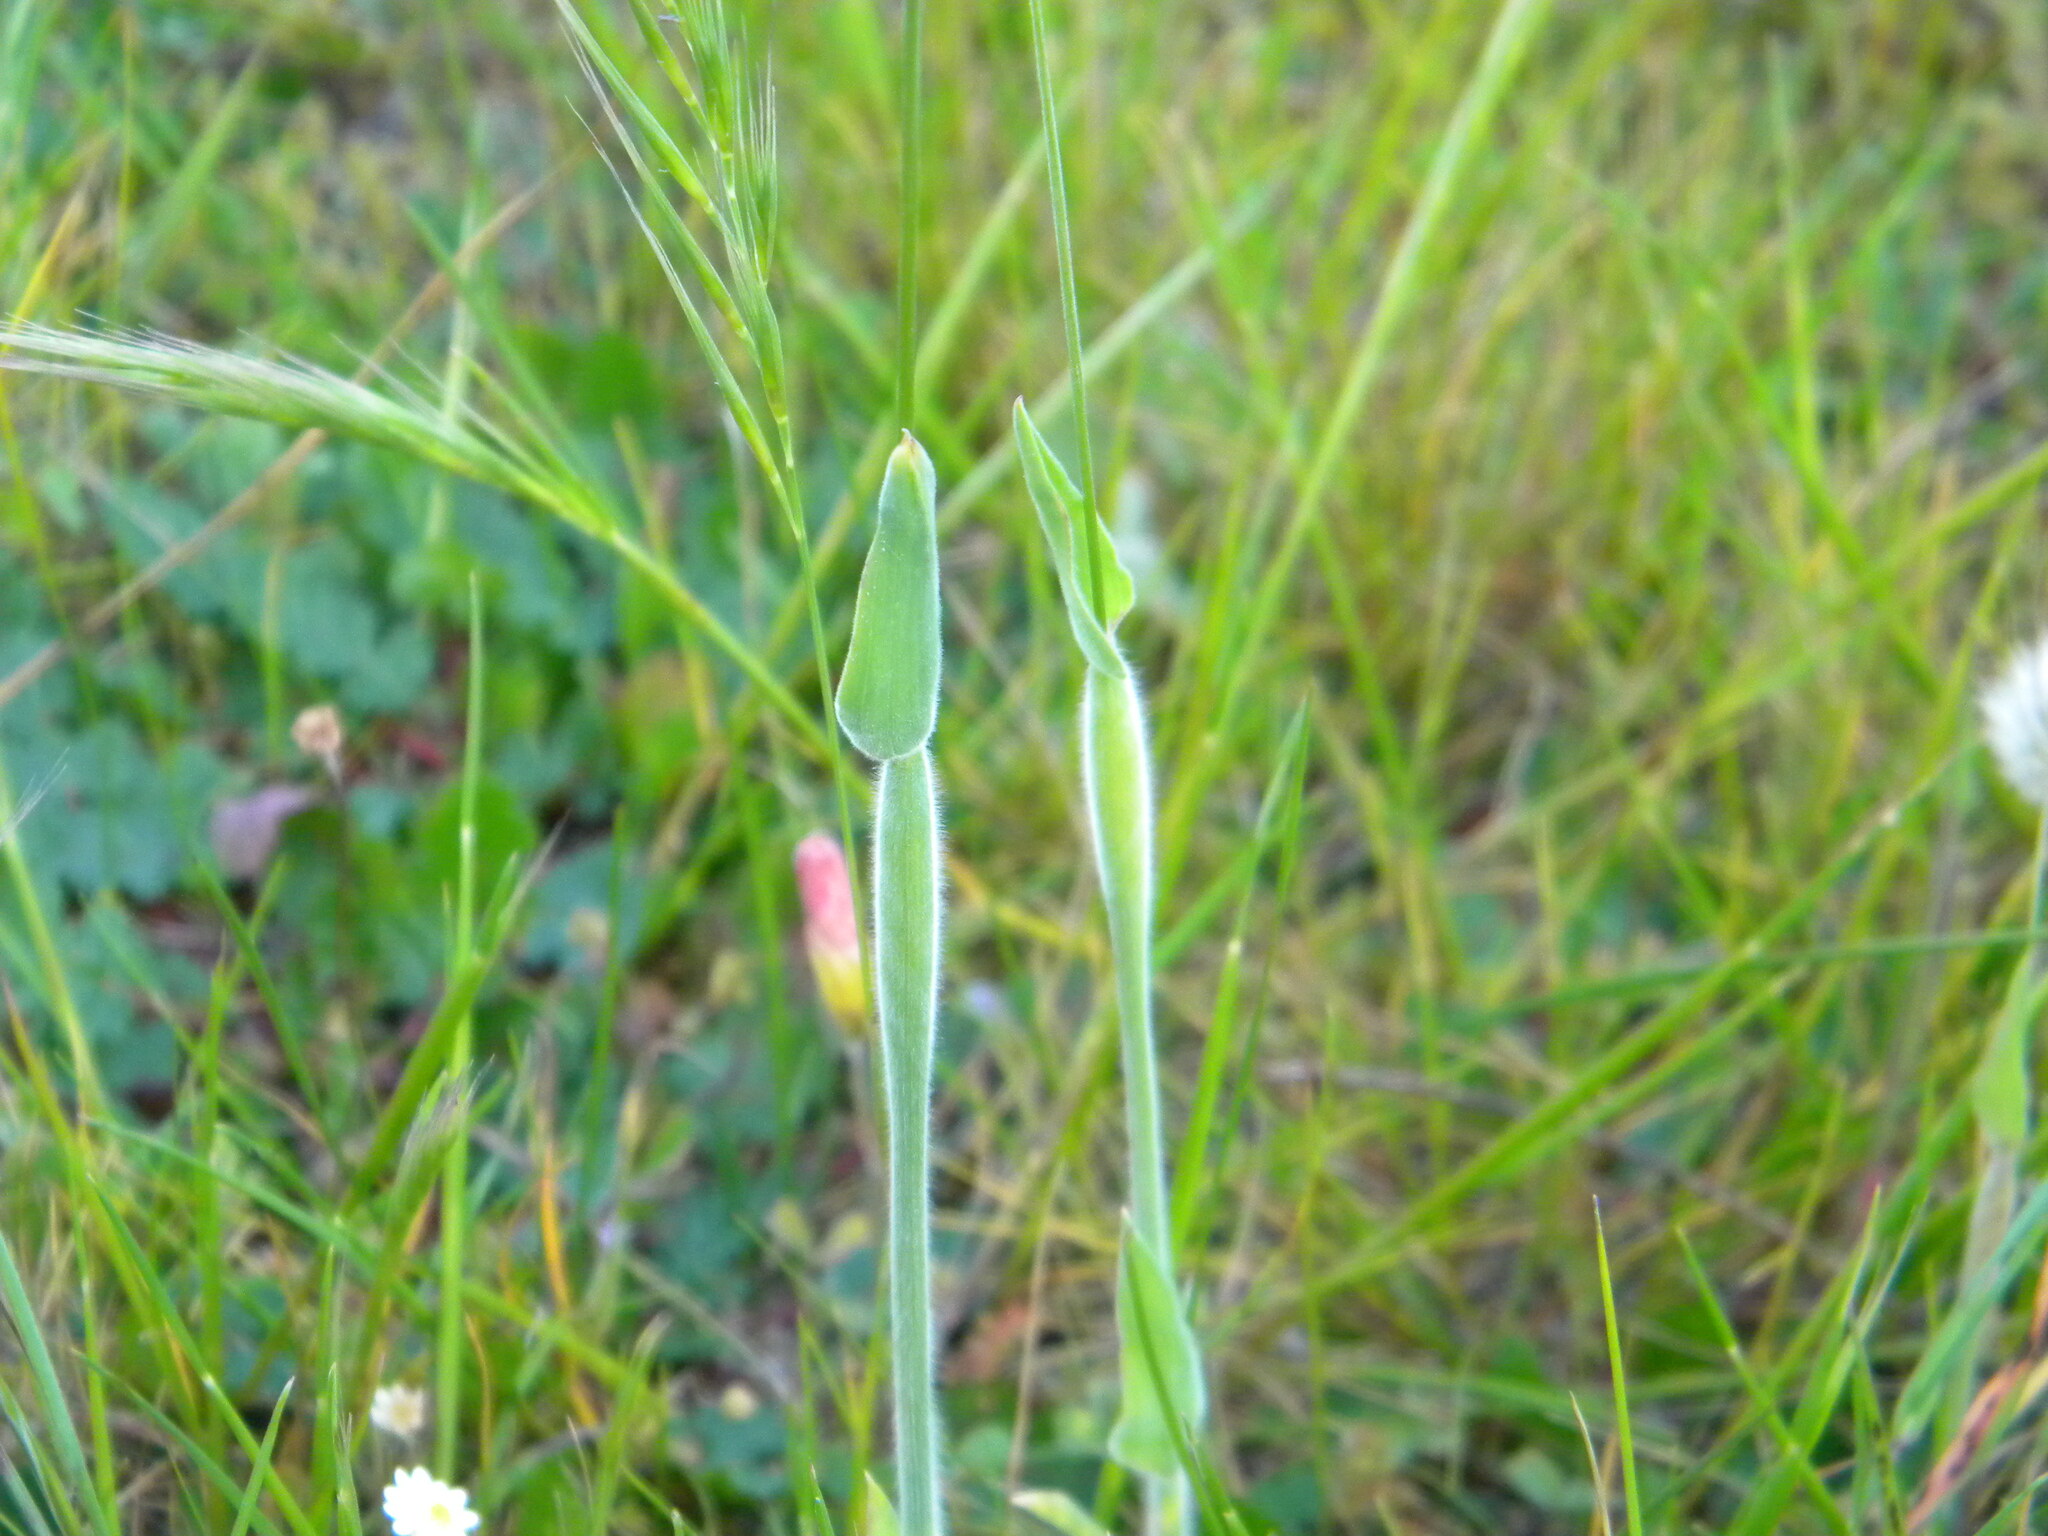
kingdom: Plantae
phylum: Tracheophyta
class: Liliopsida
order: Poales
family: Poaceae
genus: Lagurus
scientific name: Lagurus ovatus
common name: Hare's-tail
